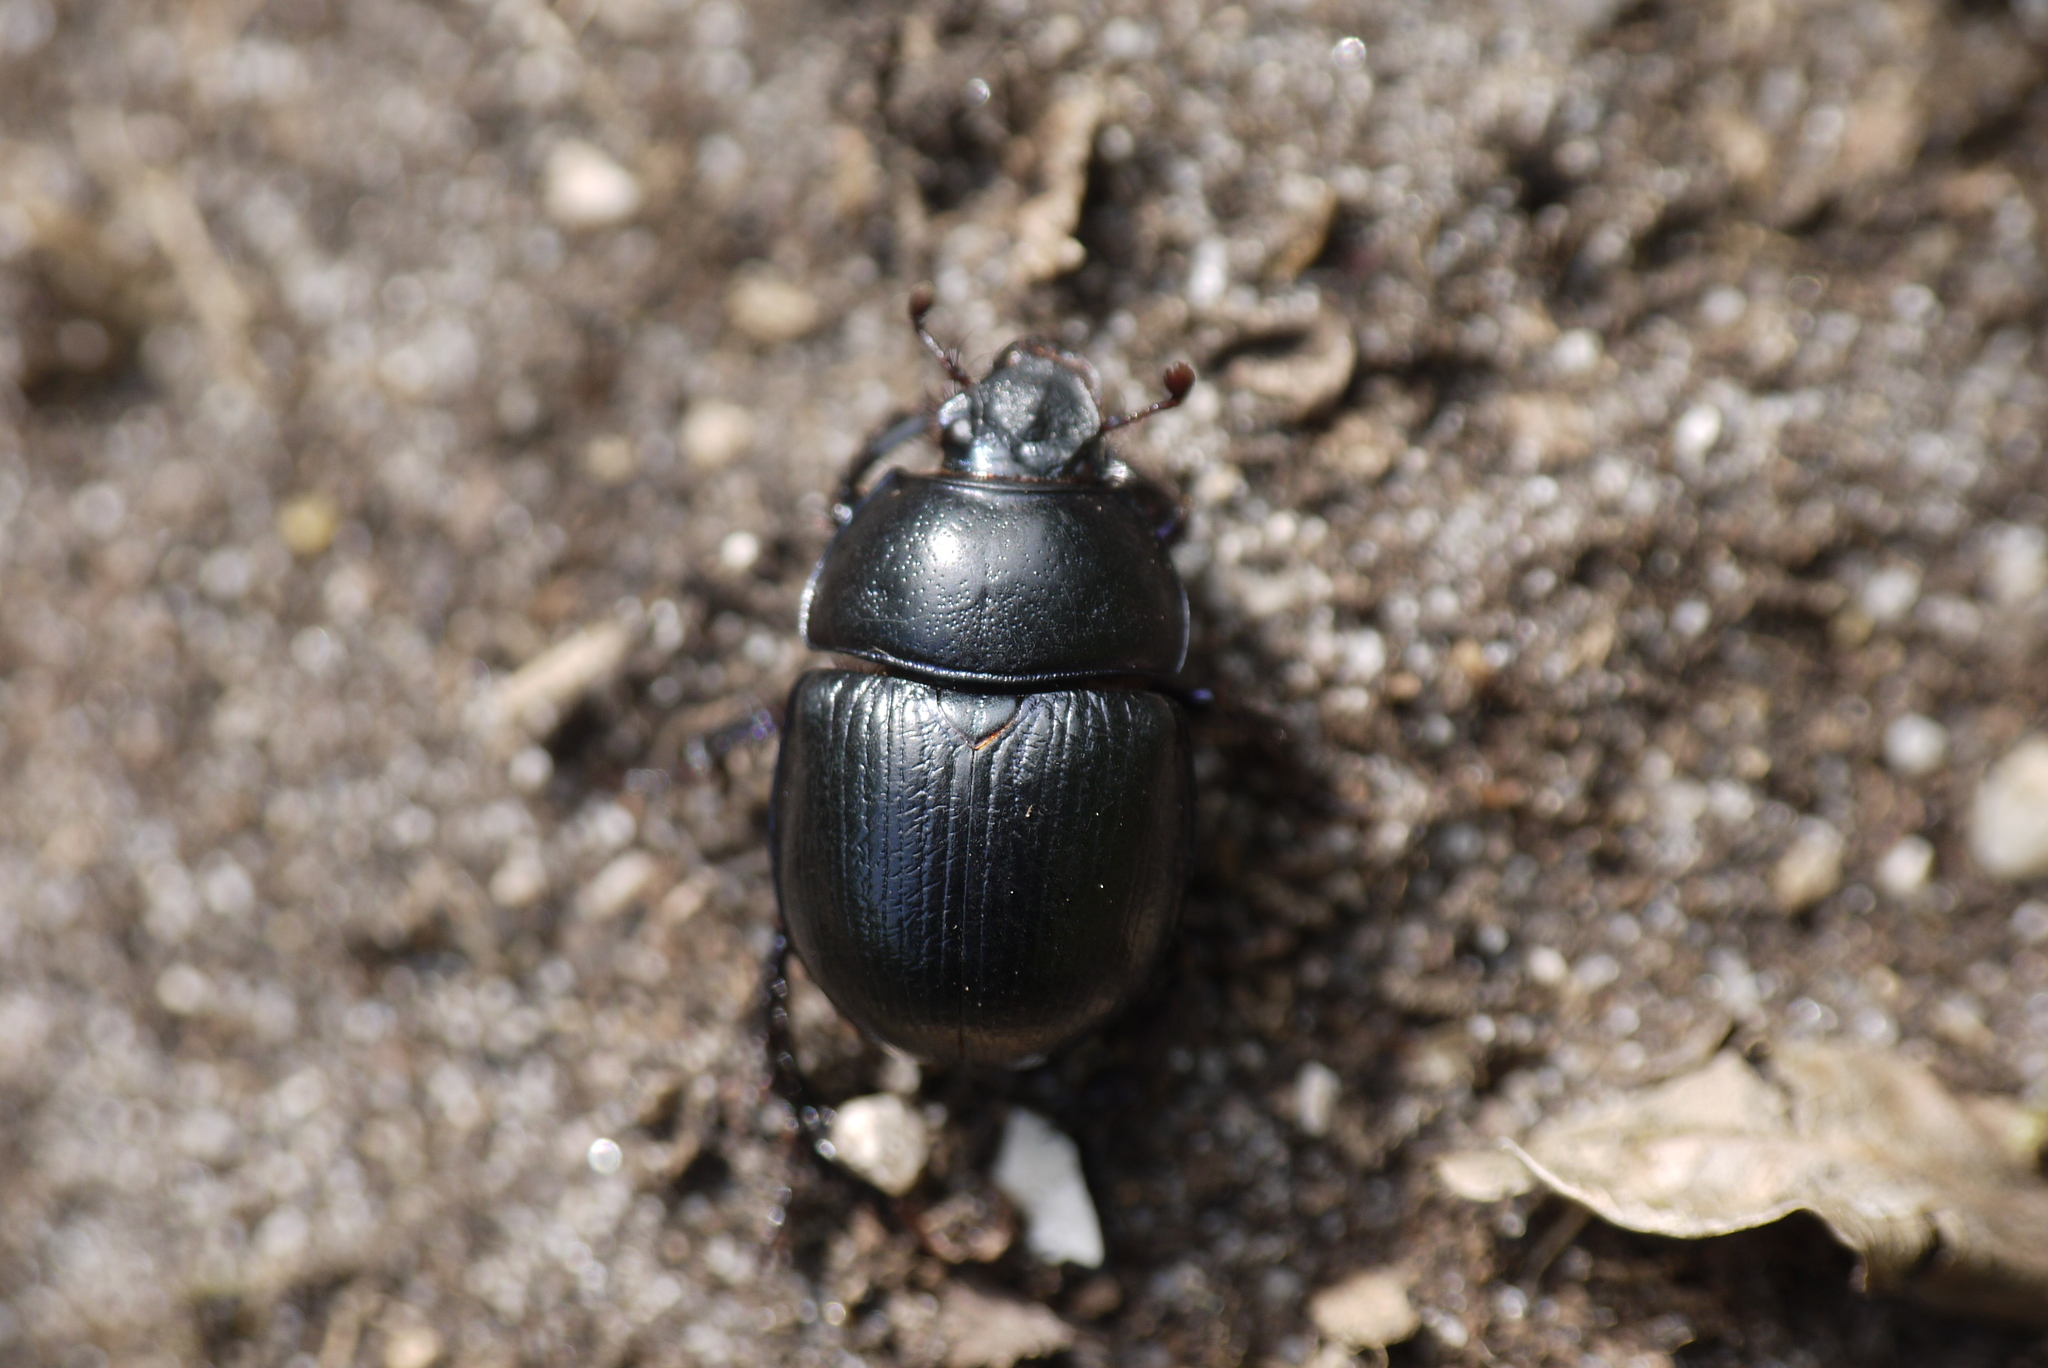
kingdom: Animalia
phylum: Arthropoda
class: Insecta
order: Coleoptera
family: Geotrupidae
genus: Anoplotrupes
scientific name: Anoplotrupes stercorosus
